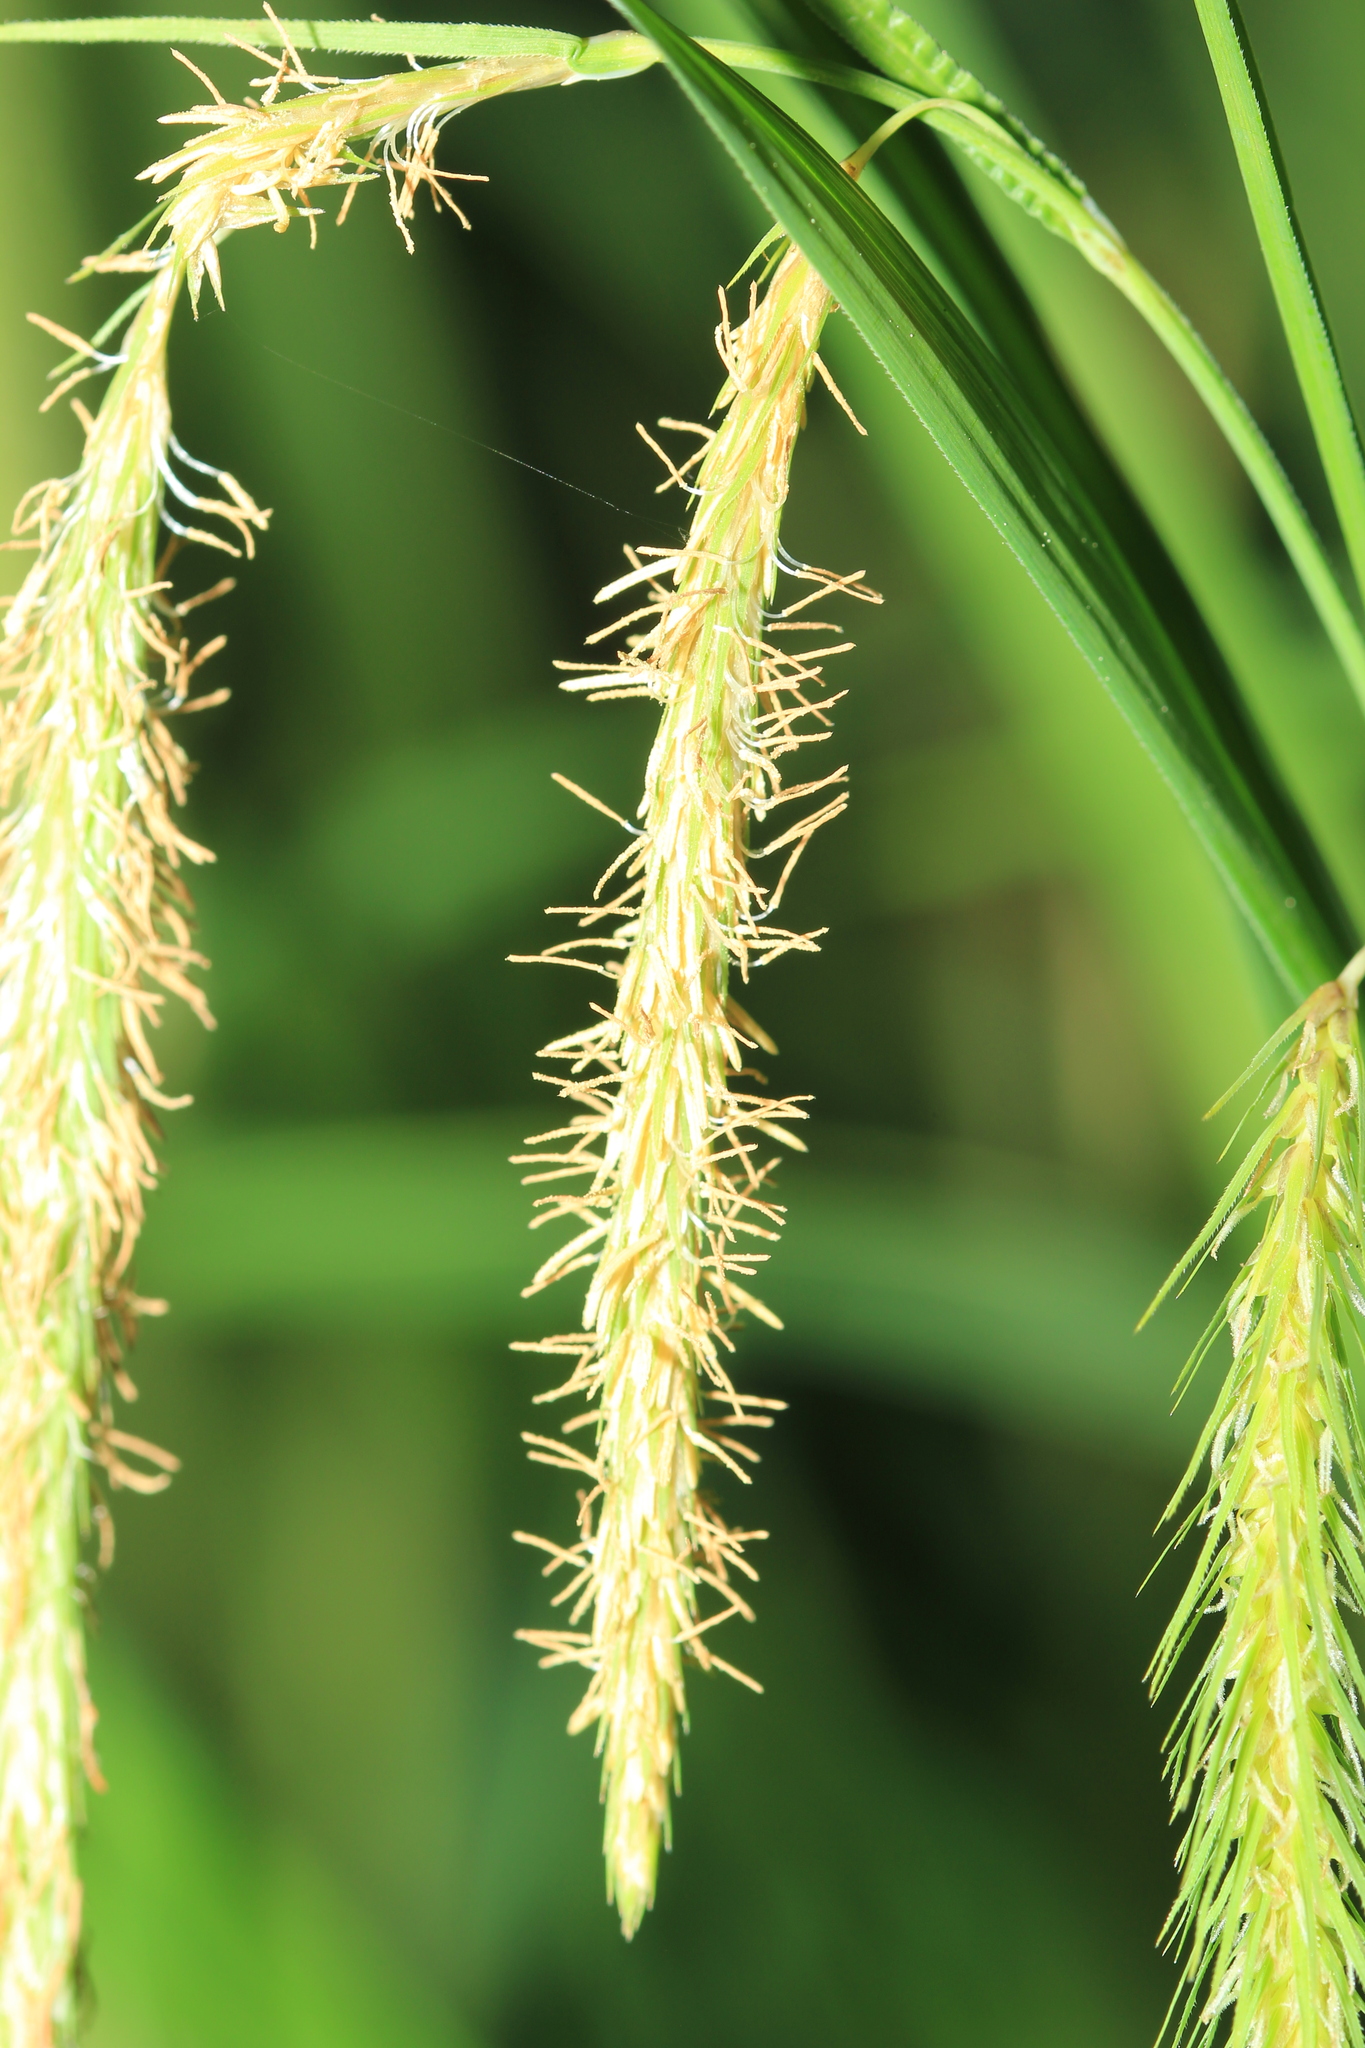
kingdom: Plantae
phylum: Tracheophyta
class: Liliopsida
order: Poales
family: Cyperaceae
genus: Carex
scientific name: Carex gynandra
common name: Nodding sedge
